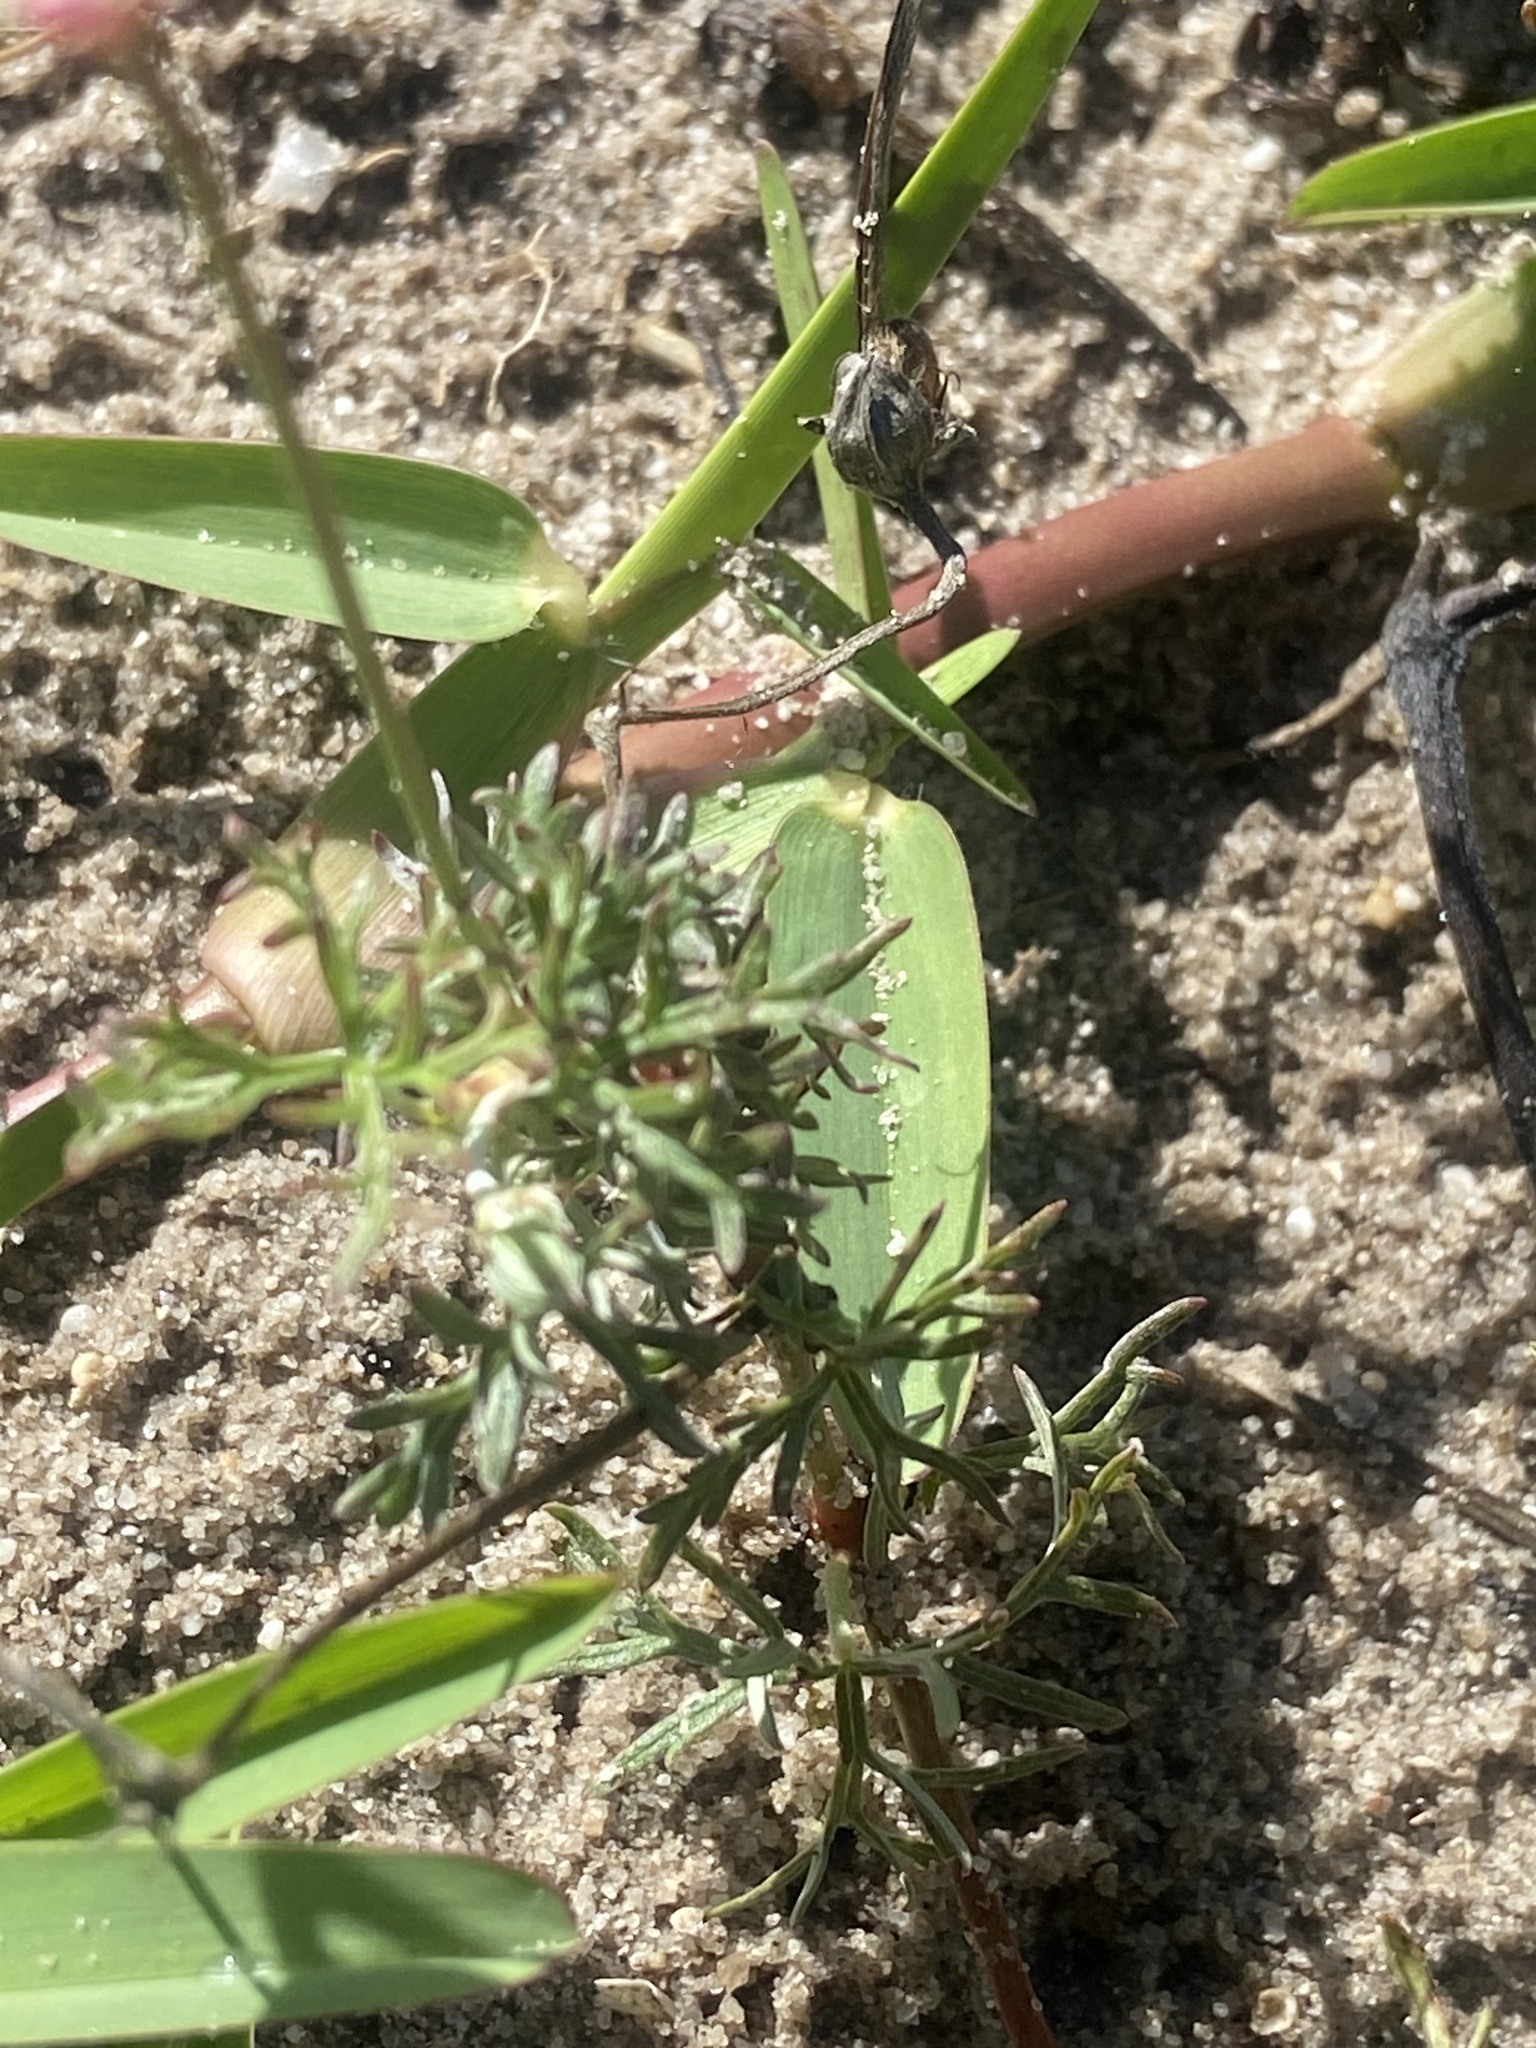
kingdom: Plantae
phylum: Tracheophyta
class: Magnoliopsida
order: Geraniales
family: Geraniaceae
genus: Geranium
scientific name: Geranium incanum
